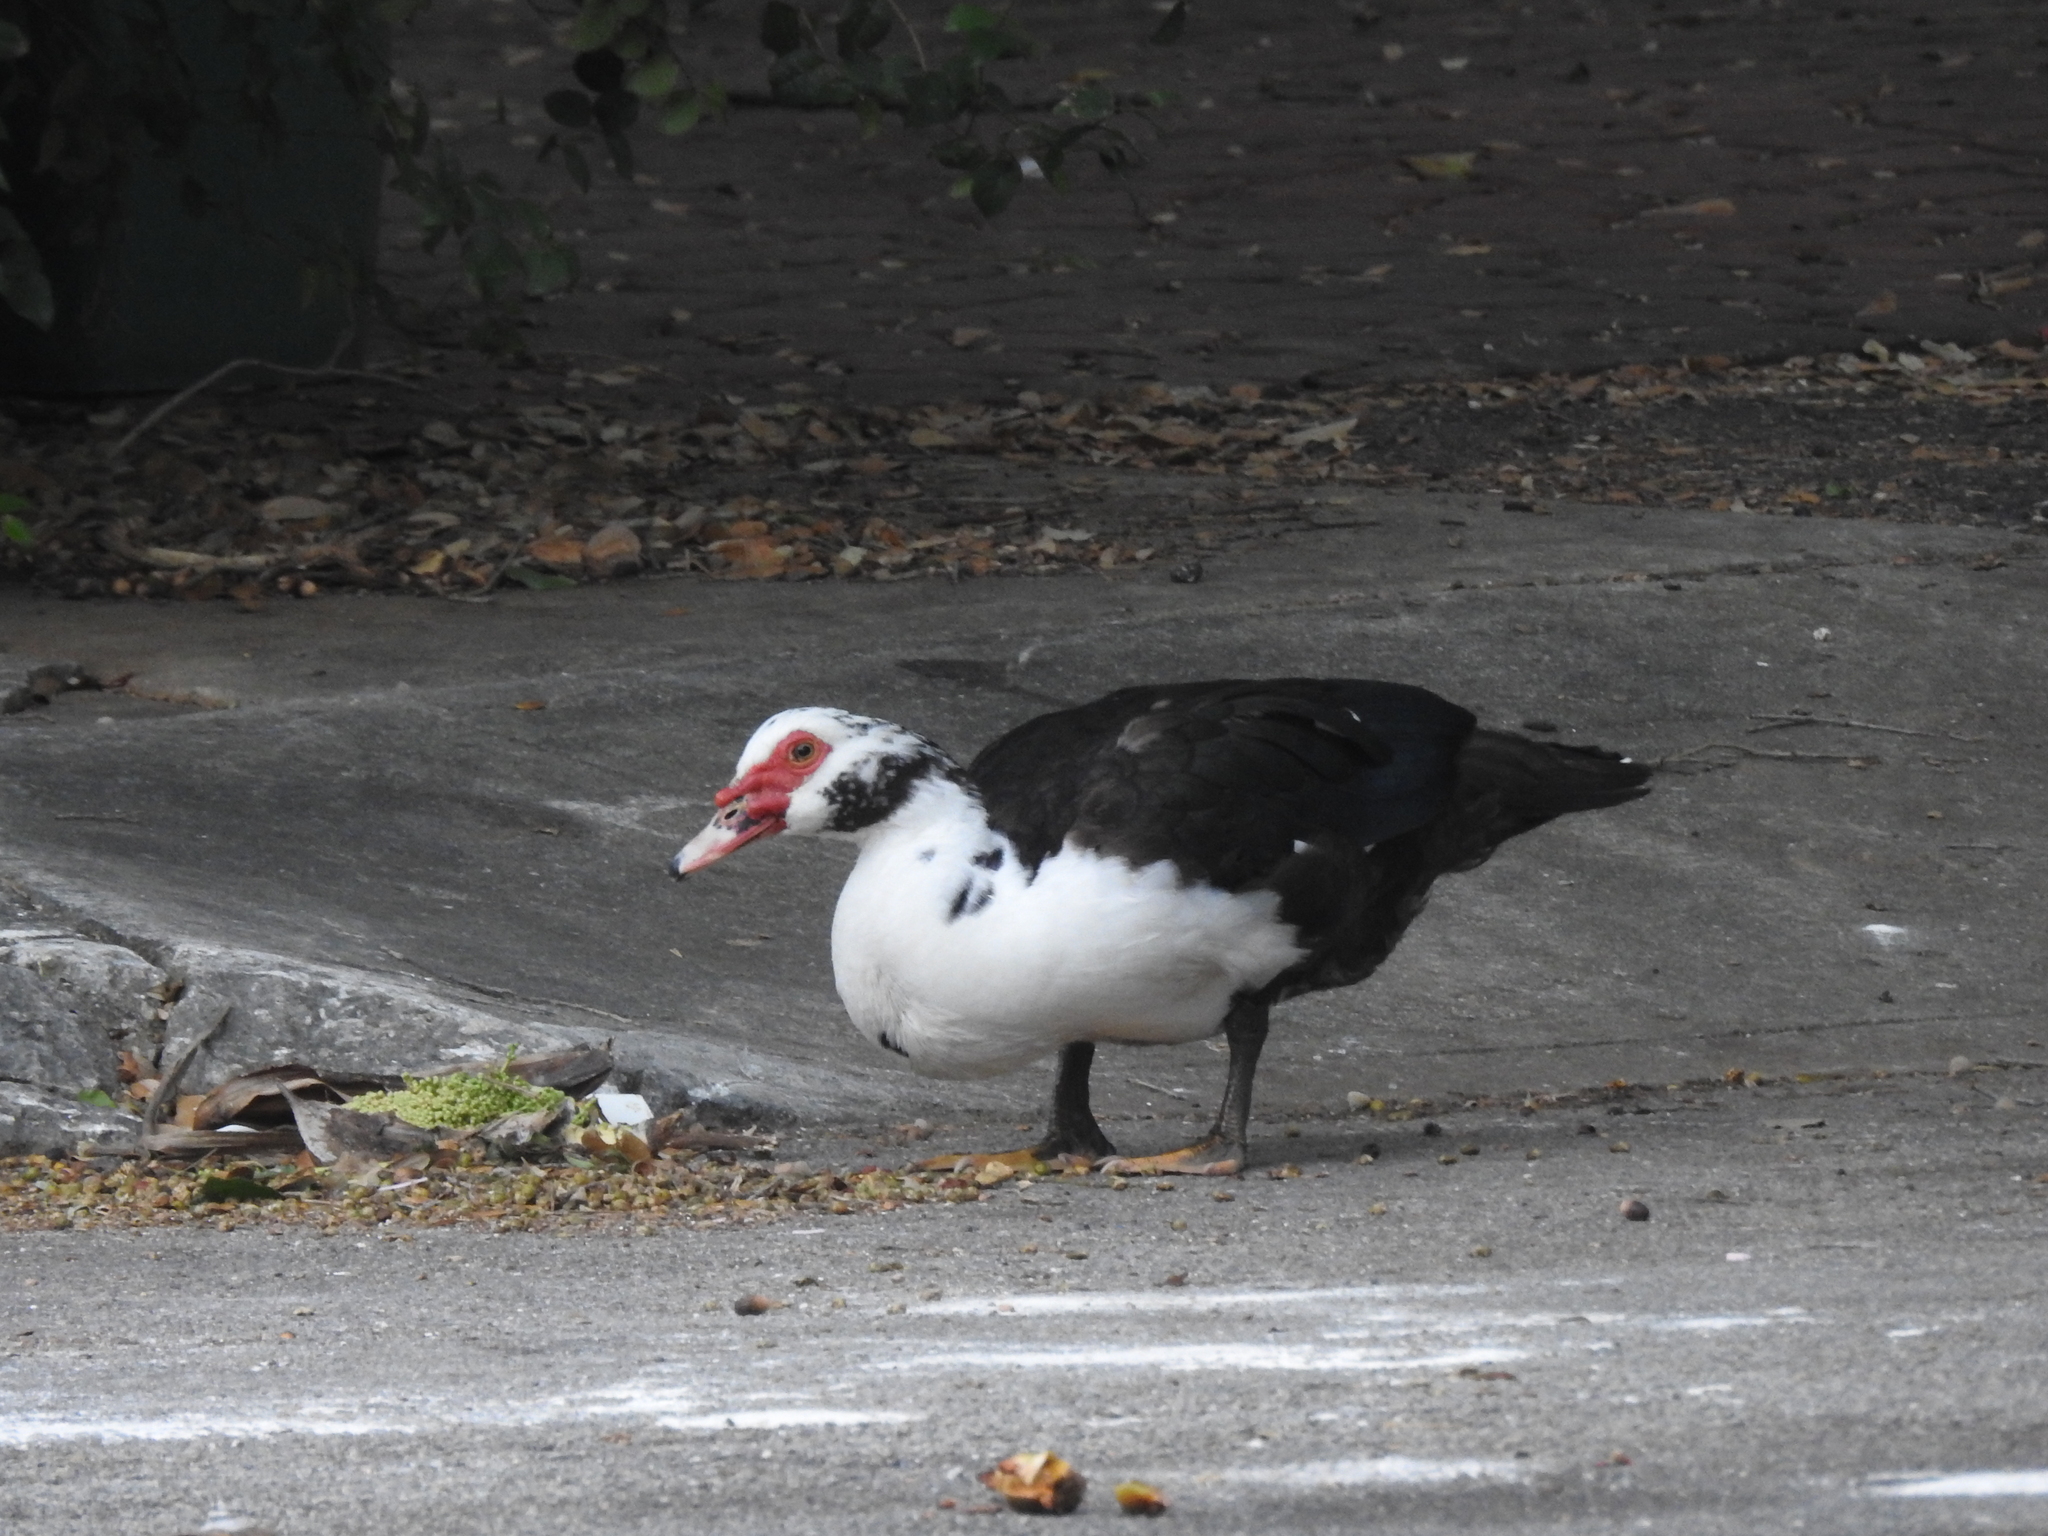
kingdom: Animalia
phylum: Chordata
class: Aves
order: Anseriformes
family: Anatidae
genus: Cairina
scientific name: Cairina moschata
